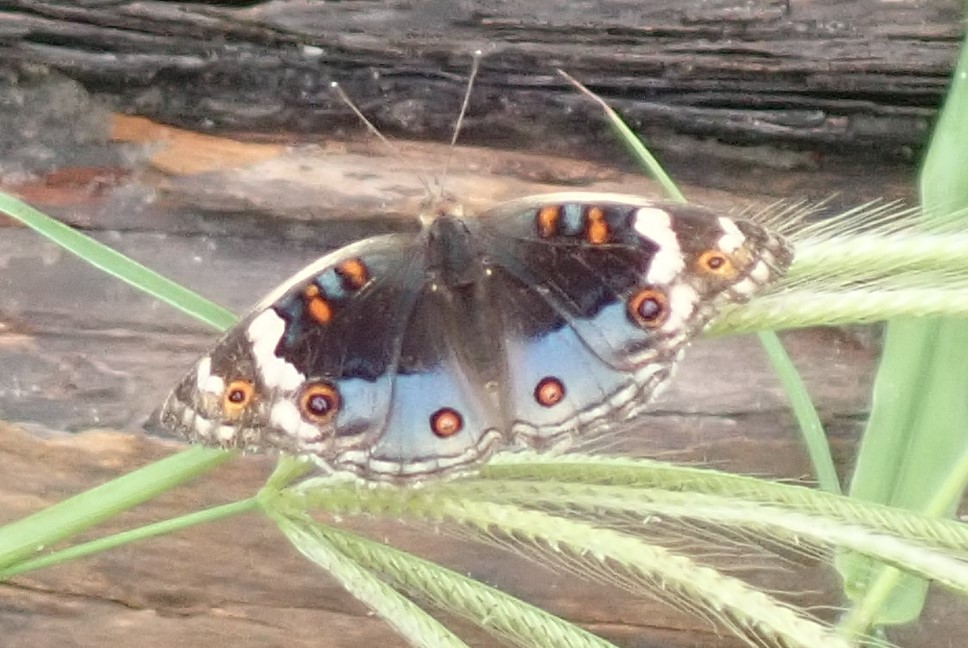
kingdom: Animalia
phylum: Arthropoda
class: Insecta
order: Lepidoptera
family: Nymphalidae
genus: Junonia
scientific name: Junonia orithya
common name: Blue pansy
